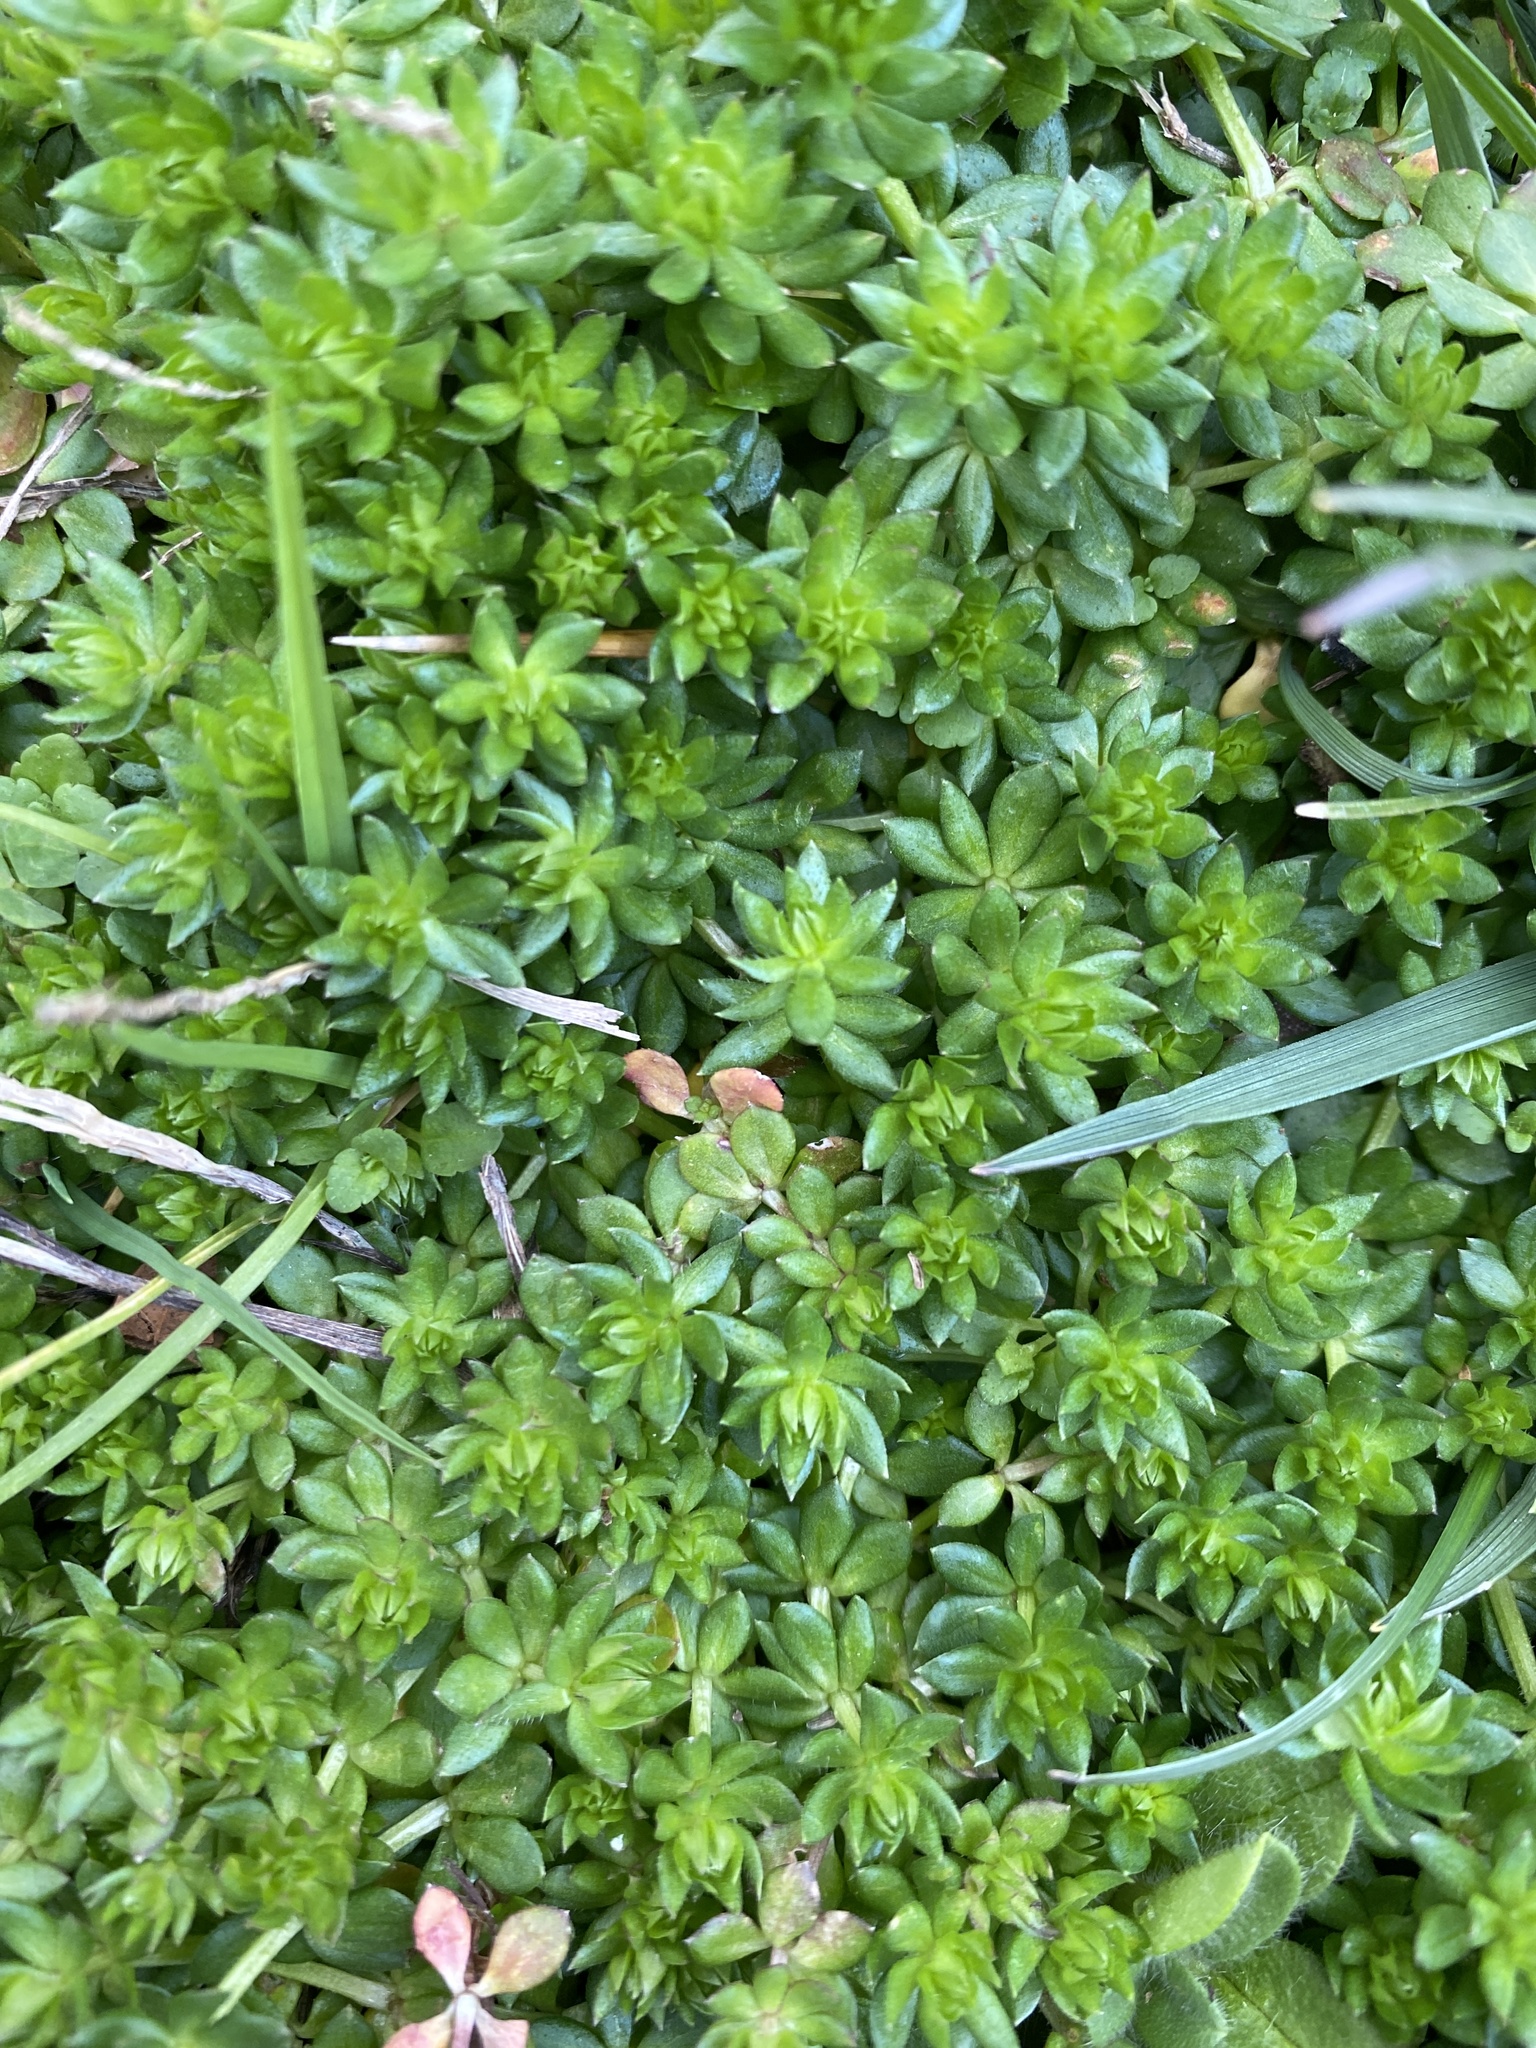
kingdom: Plantae
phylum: Tracheophyta
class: Magnoliopsida
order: Gentianales
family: Rubiaceae
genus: Sherardia
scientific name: Sherardia arvensis
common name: Field madder
